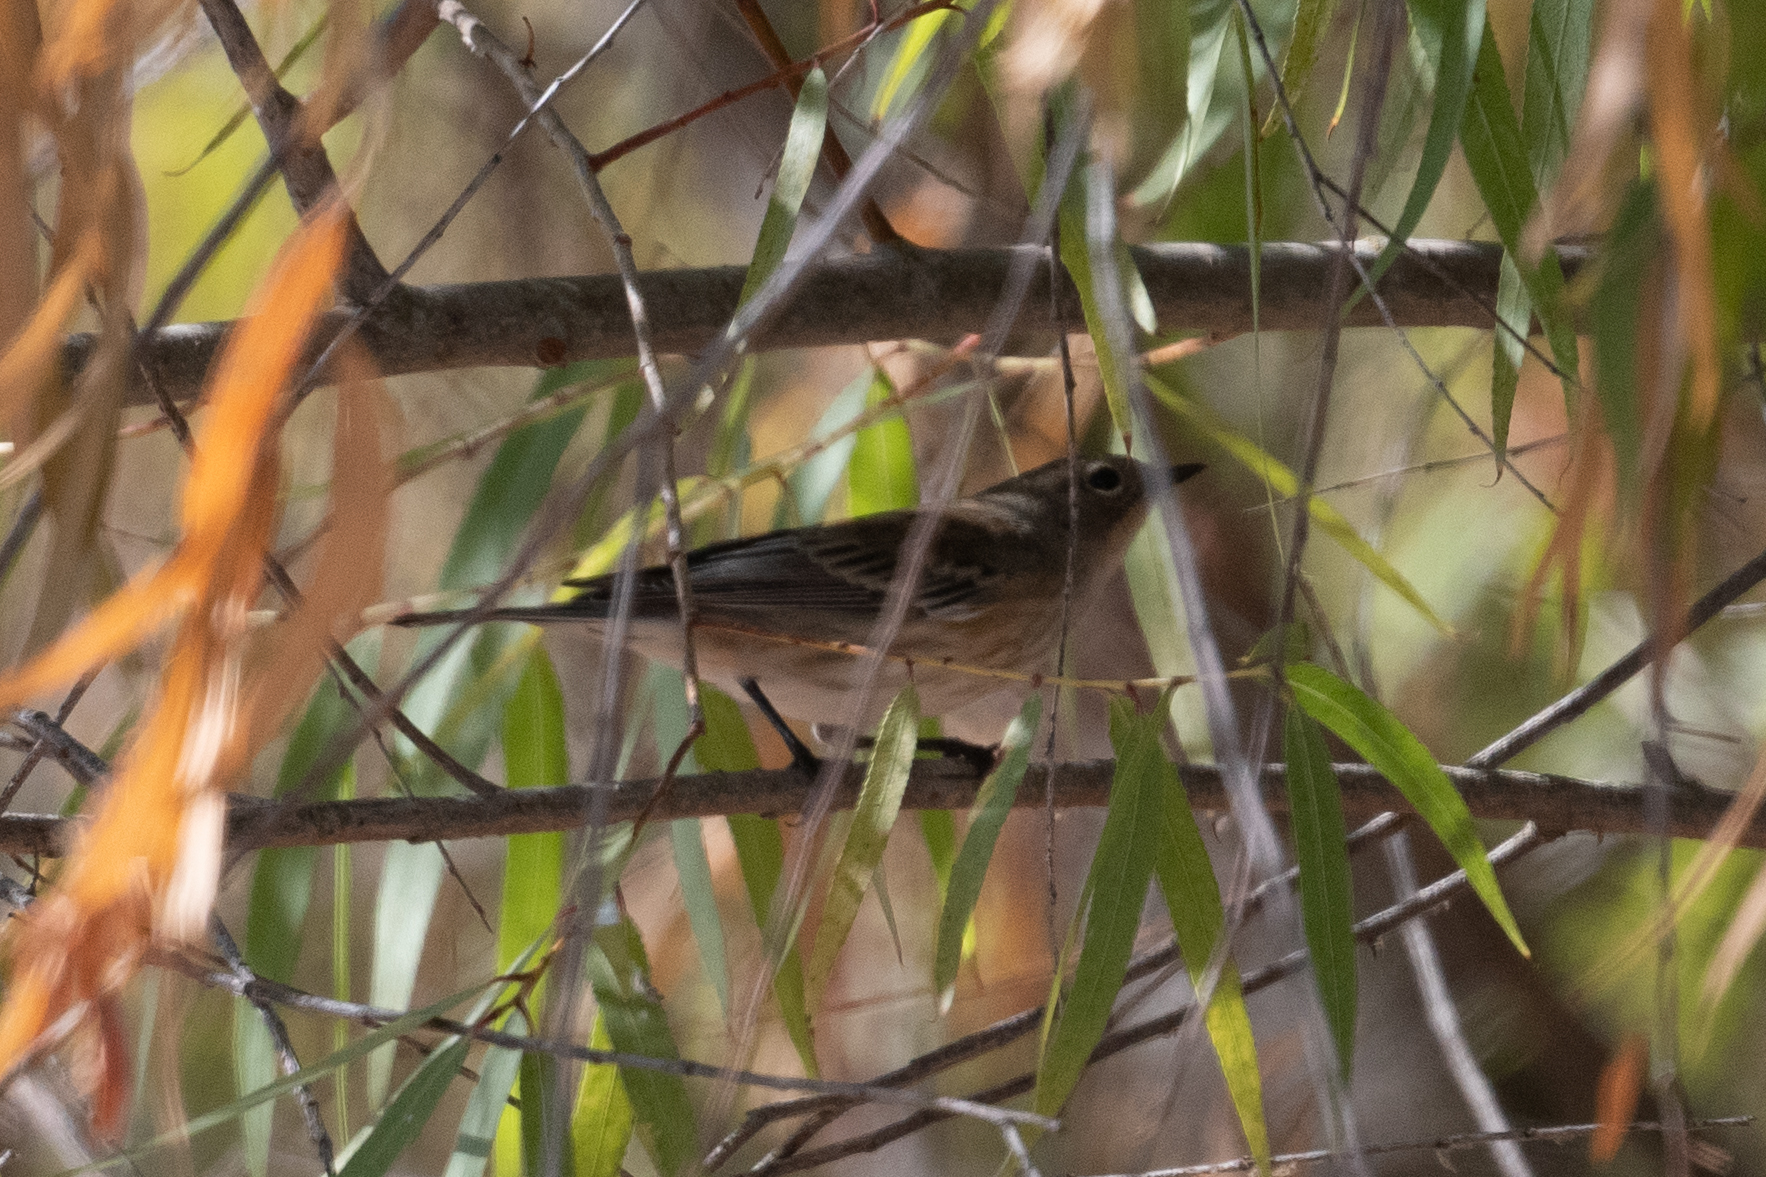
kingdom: Animalia
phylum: Chordata
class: Aves
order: Passeriformes
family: Parulidae
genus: Setophaga
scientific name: Setophaga coronata
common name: Myrtle warbler
